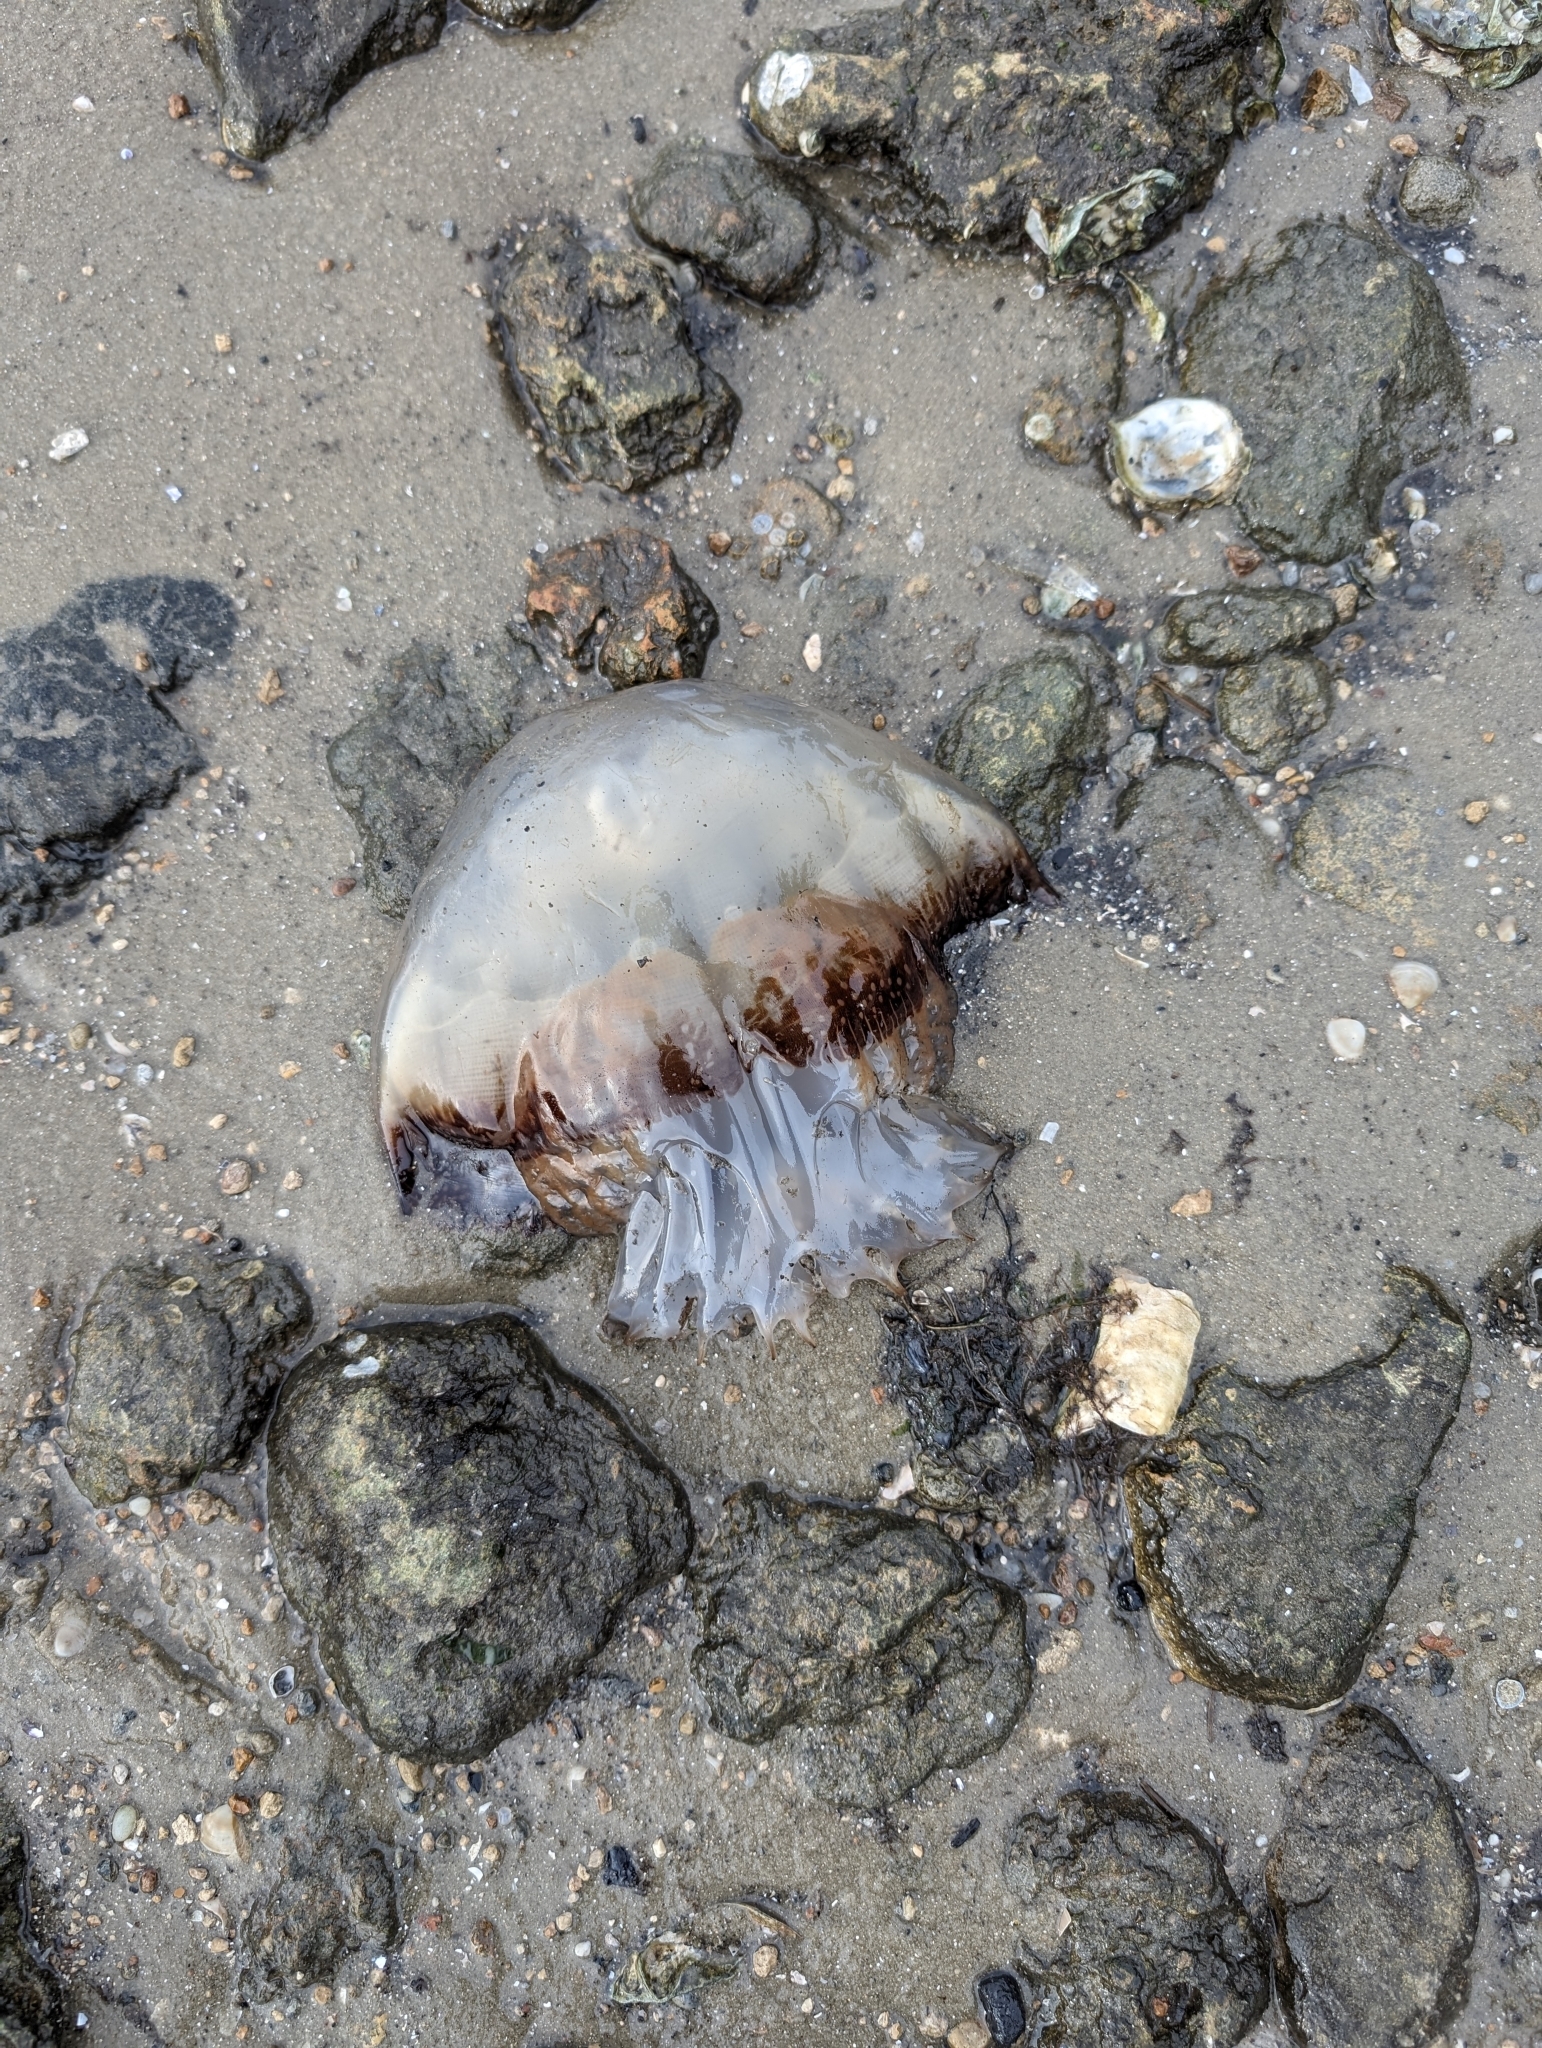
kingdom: Animalia
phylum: Cnidaria
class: Scyphozoa
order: Rhizostomeae
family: Stomolophidae
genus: Stomolophus
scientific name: Stomolophus meleagris
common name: Cabbagehead
